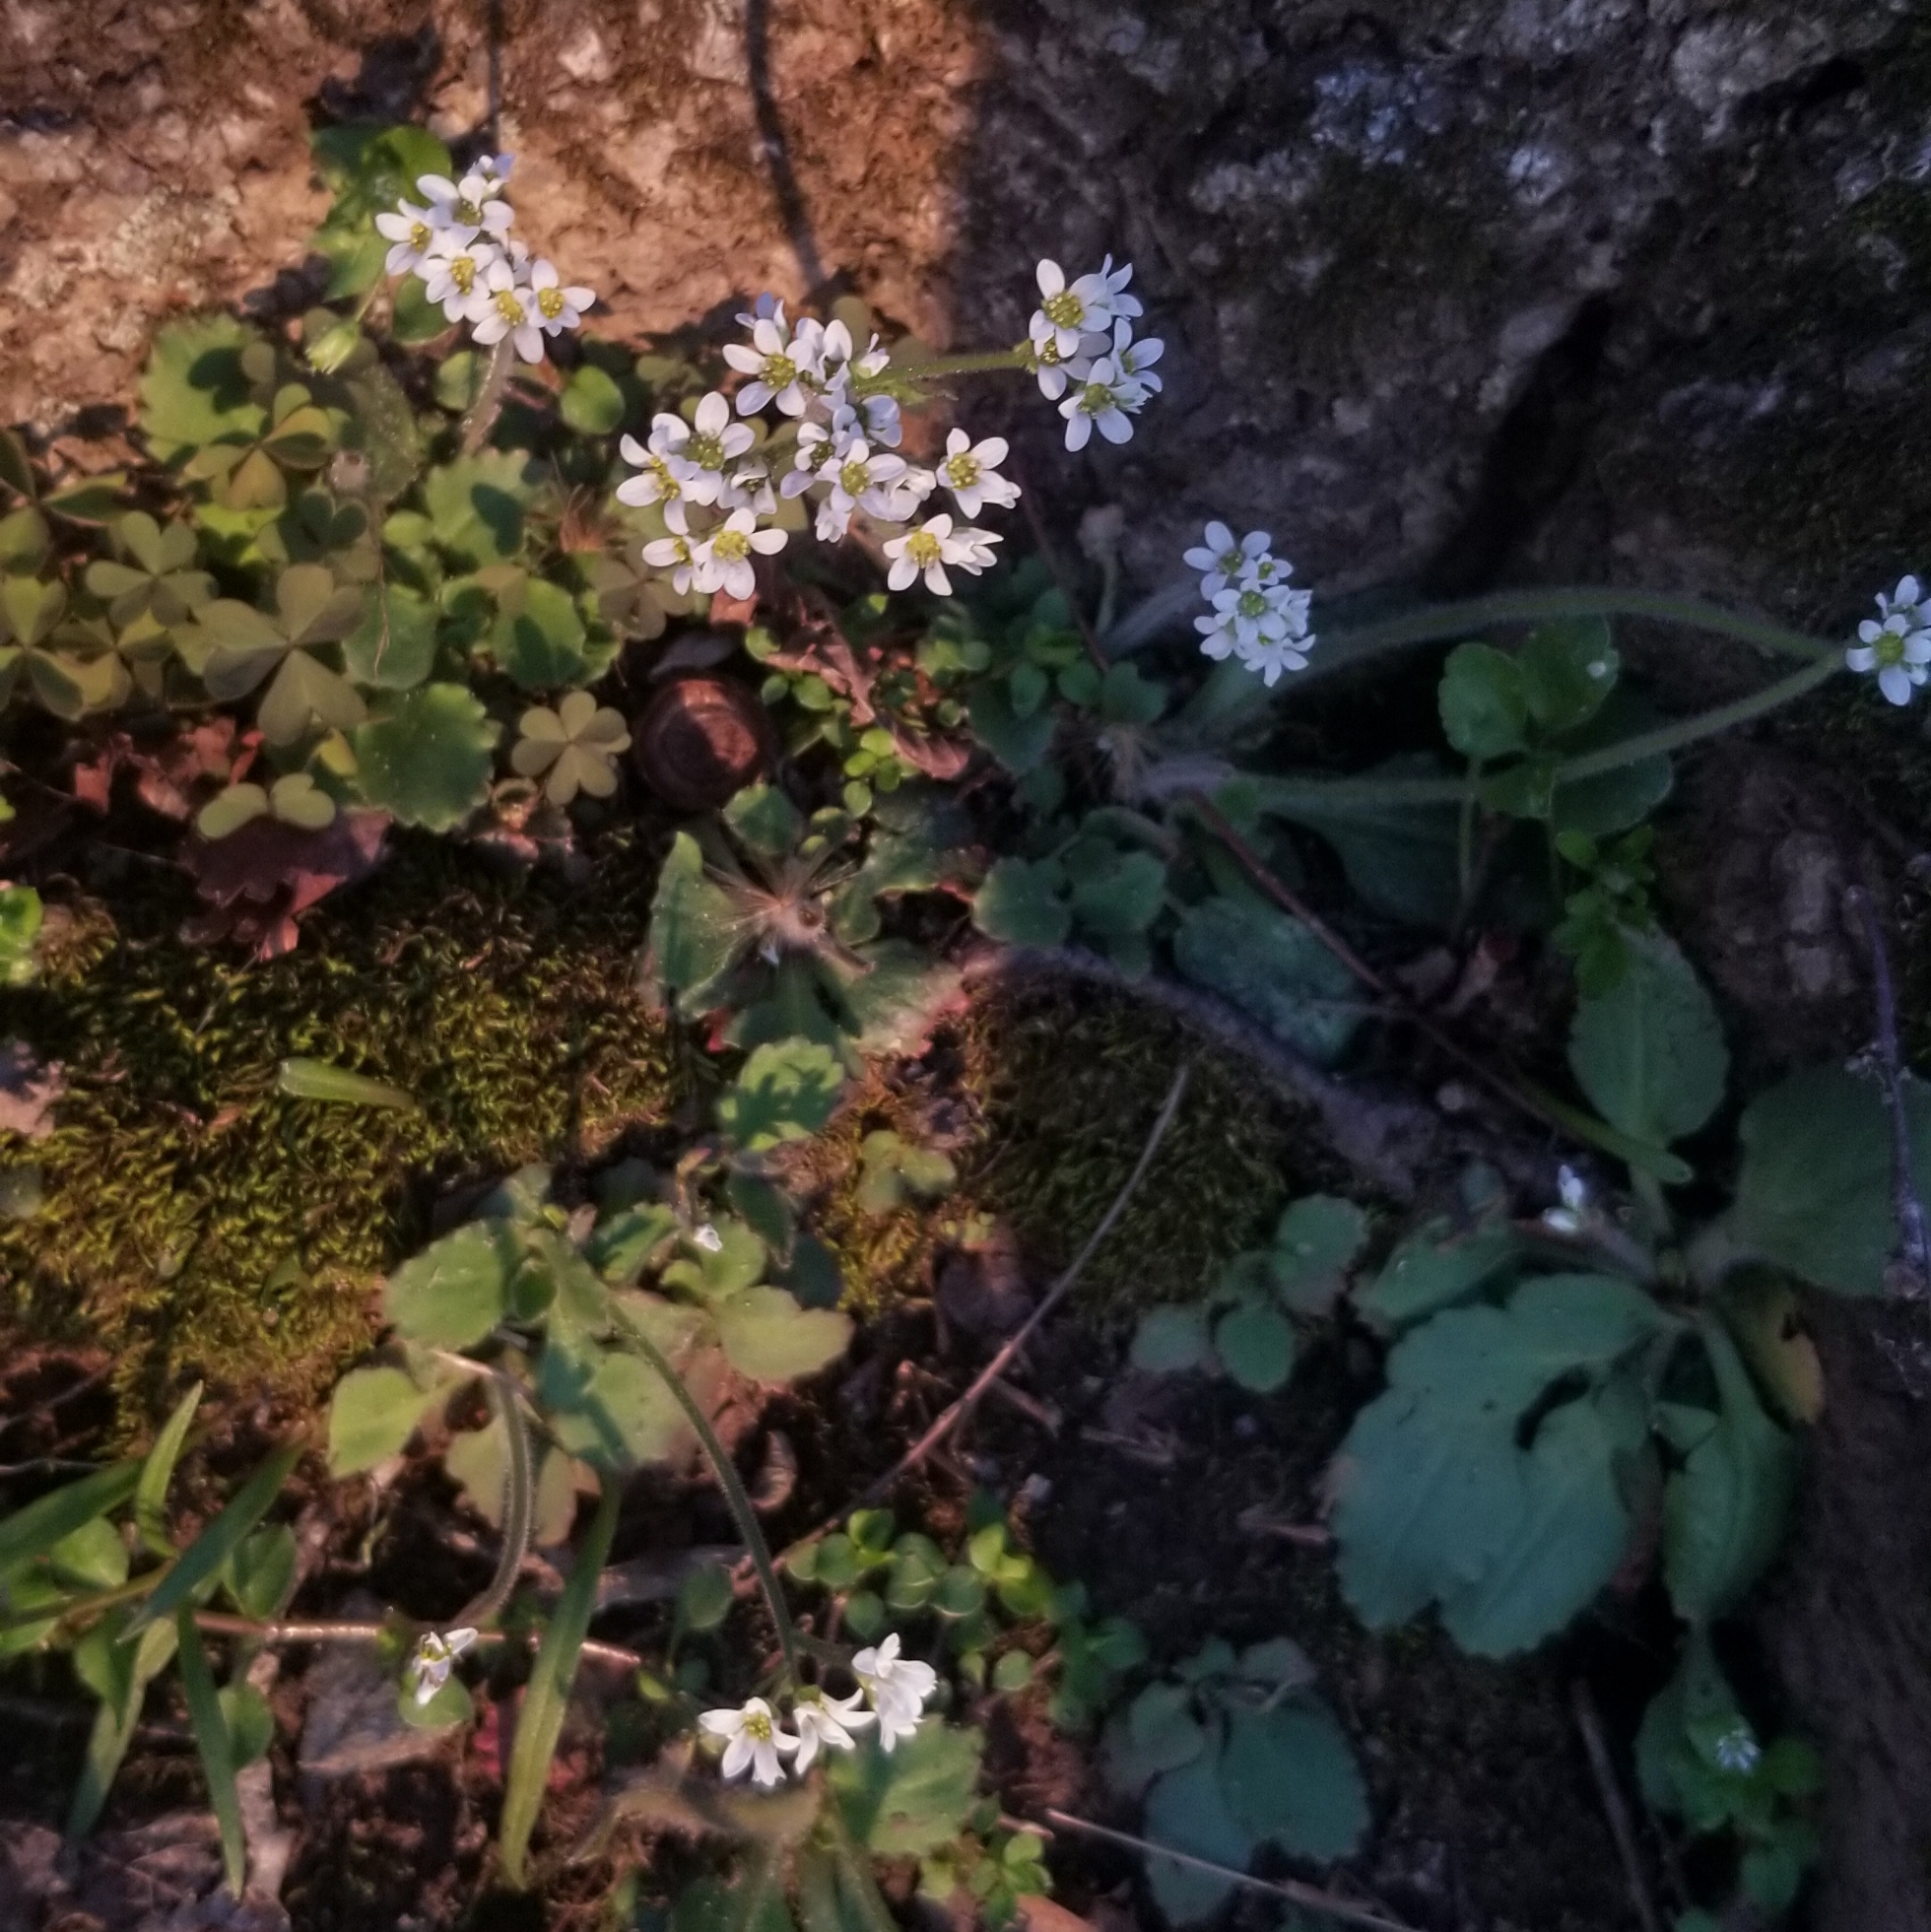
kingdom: Plantae
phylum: Tracheophyta
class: Magnoliopsida
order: Saxifragales
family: Saxifragaceae
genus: Micranthes
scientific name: Micranthes virginiensis
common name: Early saxifrage
